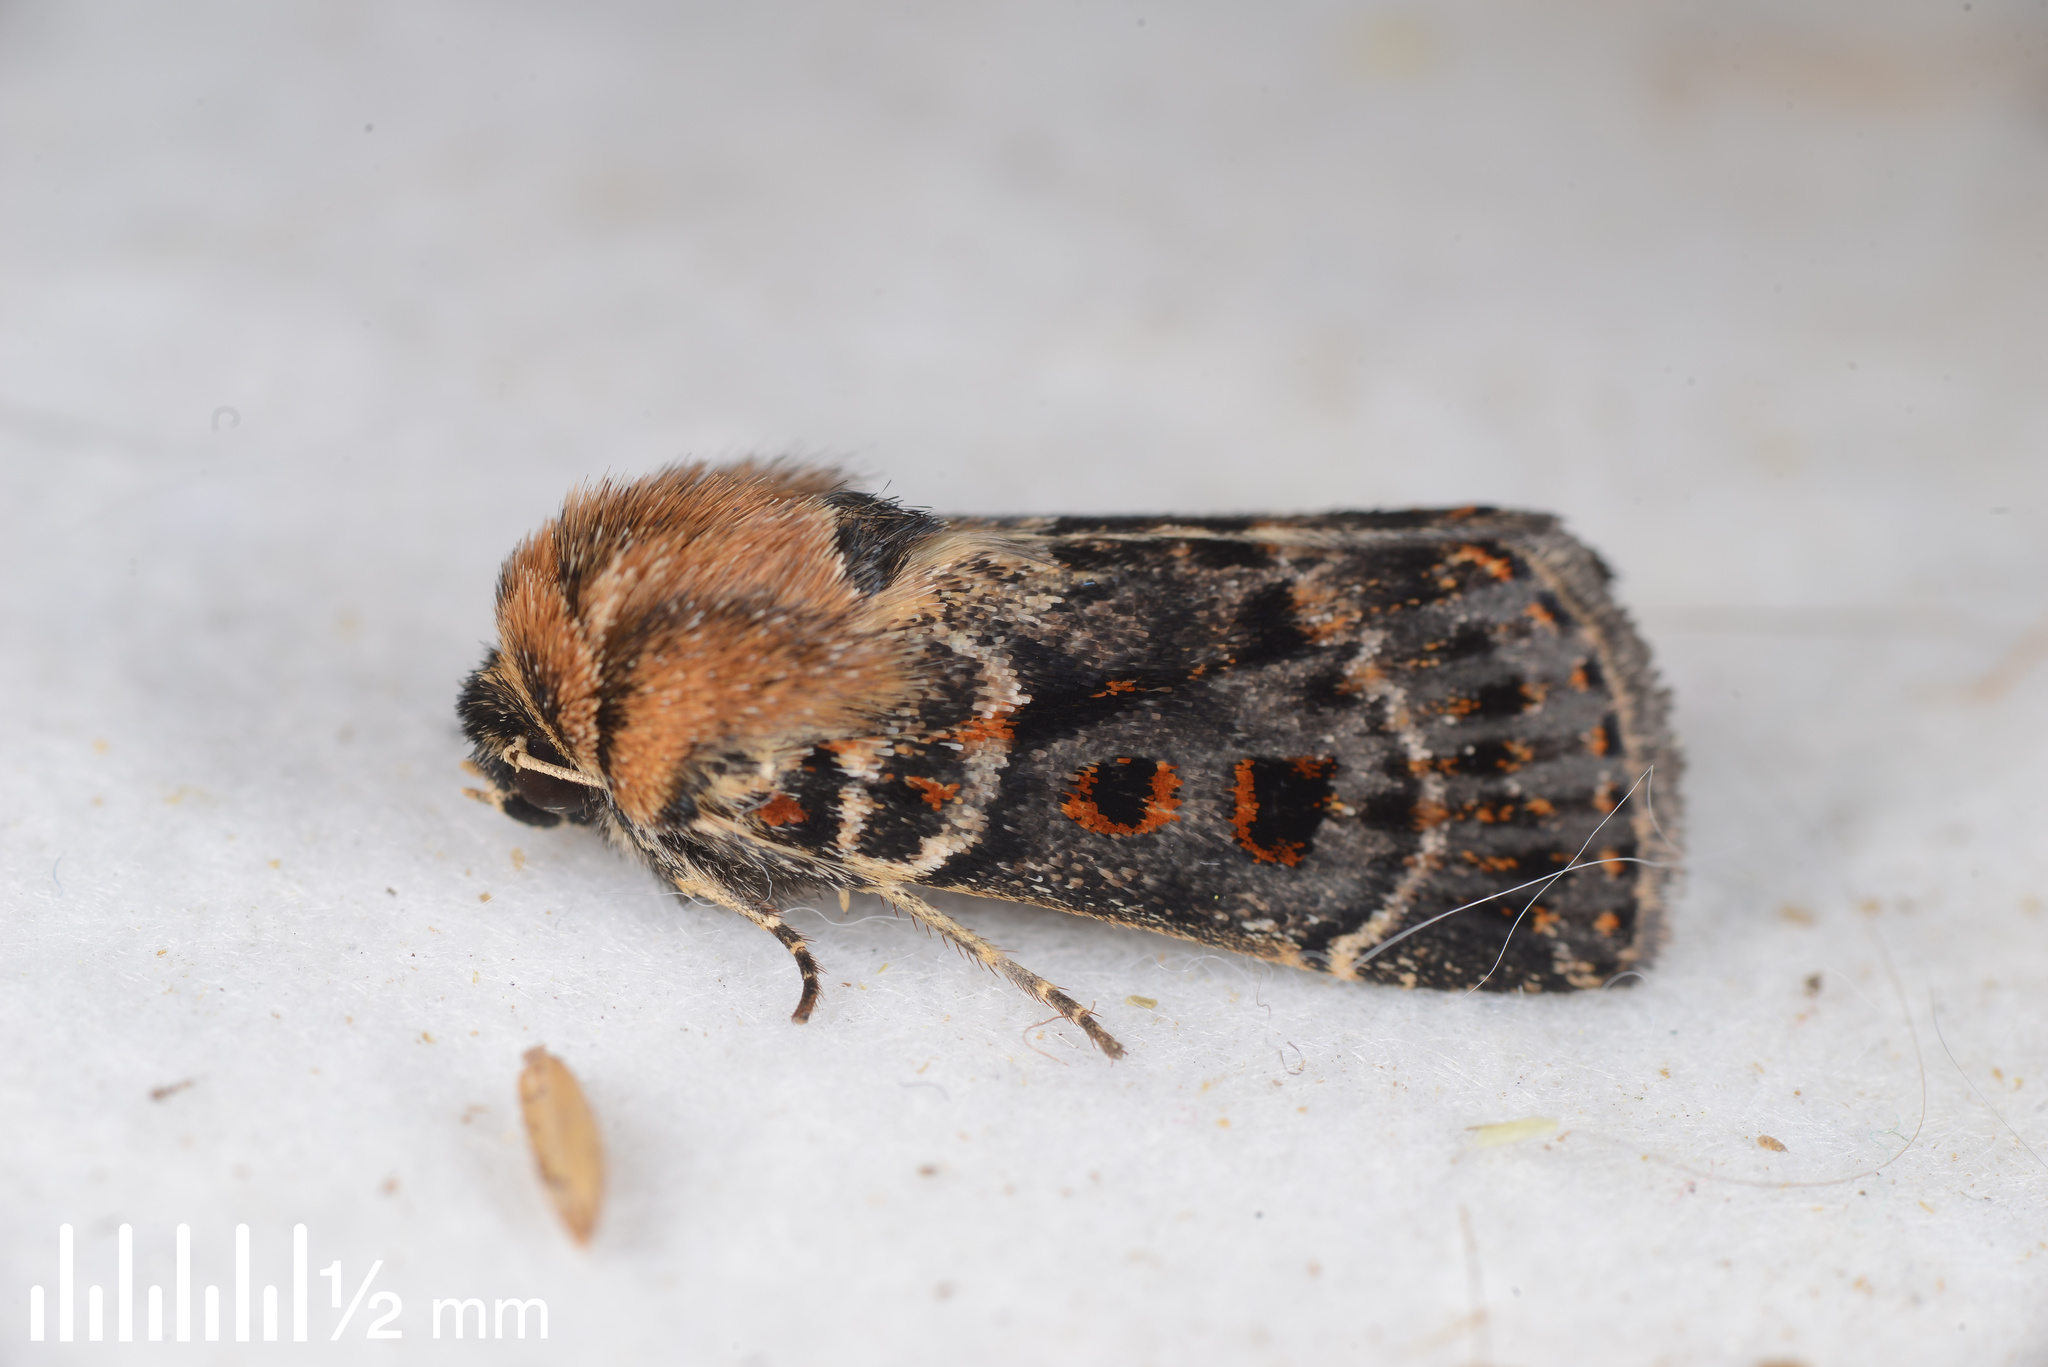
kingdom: Animalia
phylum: Arthropoda
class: Insecta
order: Lepidoptera
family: Noctuidae
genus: Proteuxoa
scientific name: Proteuxoa sanguinipuncta
